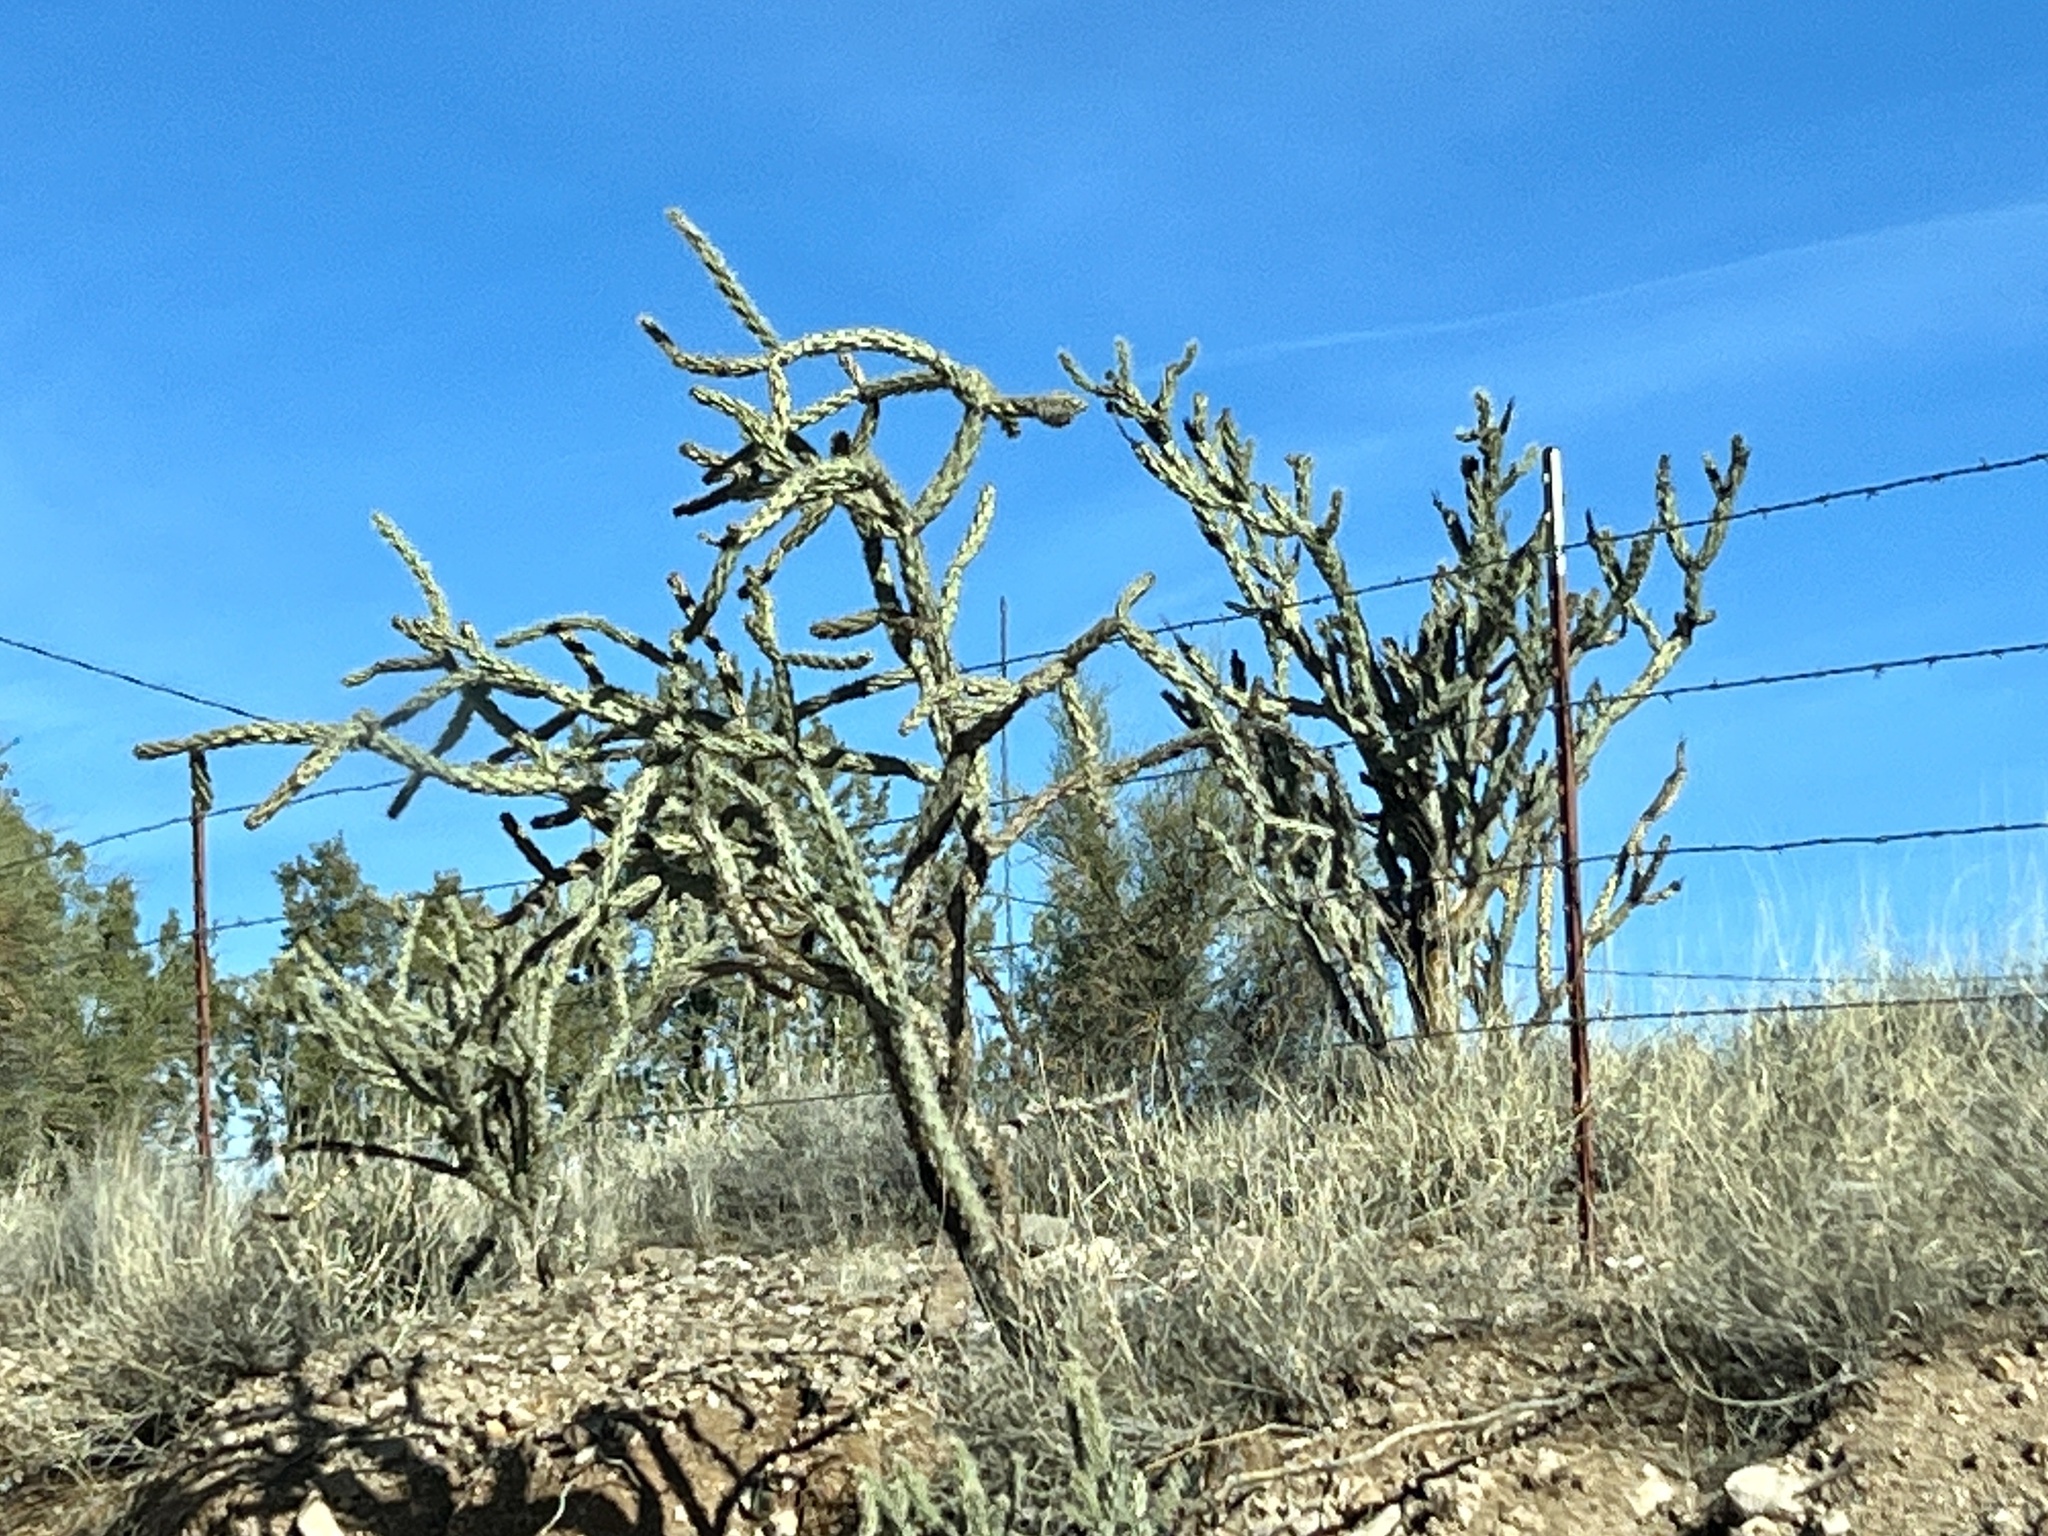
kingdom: Plantae
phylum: Tracheophyta
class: Magnoliopsida
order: Caryophyllales
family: Cactaceae
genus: Cylindropuntia
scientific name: Cylindropuntia acanthocarpa
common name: Buckhorn cholla
